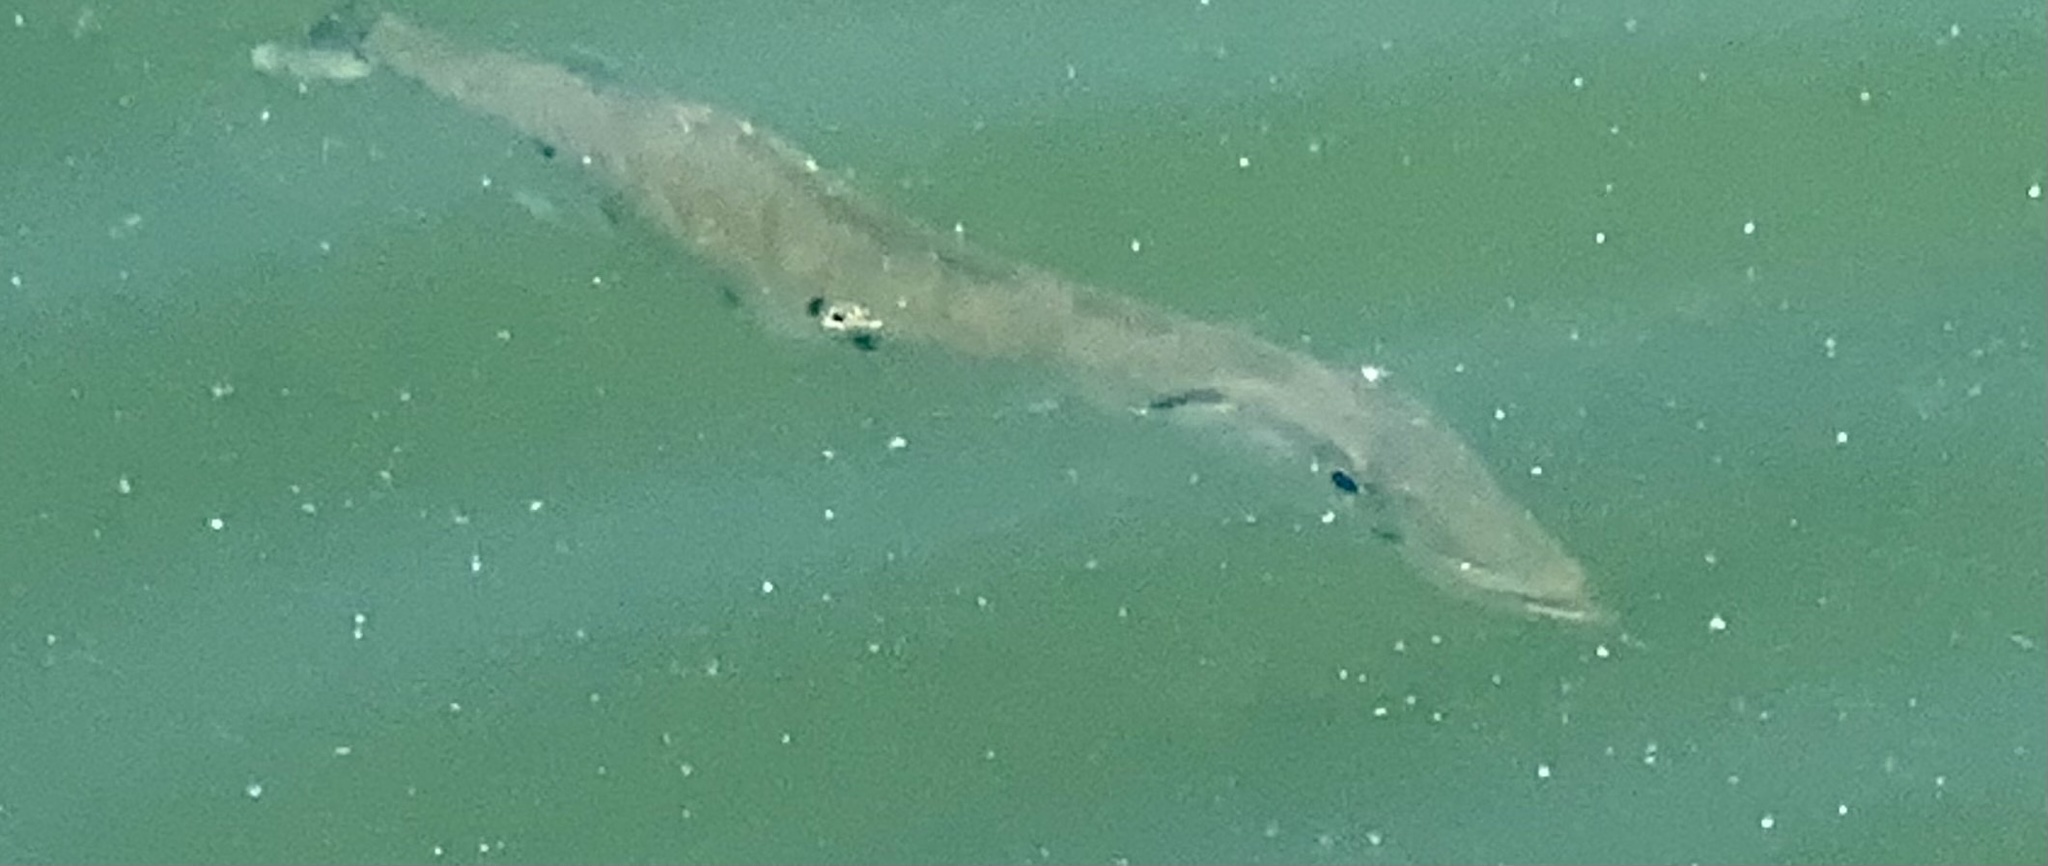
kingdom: Animalia
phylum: Chordata
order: Perciformes
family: Sphyraenidae
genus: Sphyraena
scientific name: Sphyraena barracuda
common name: Great barracuda
